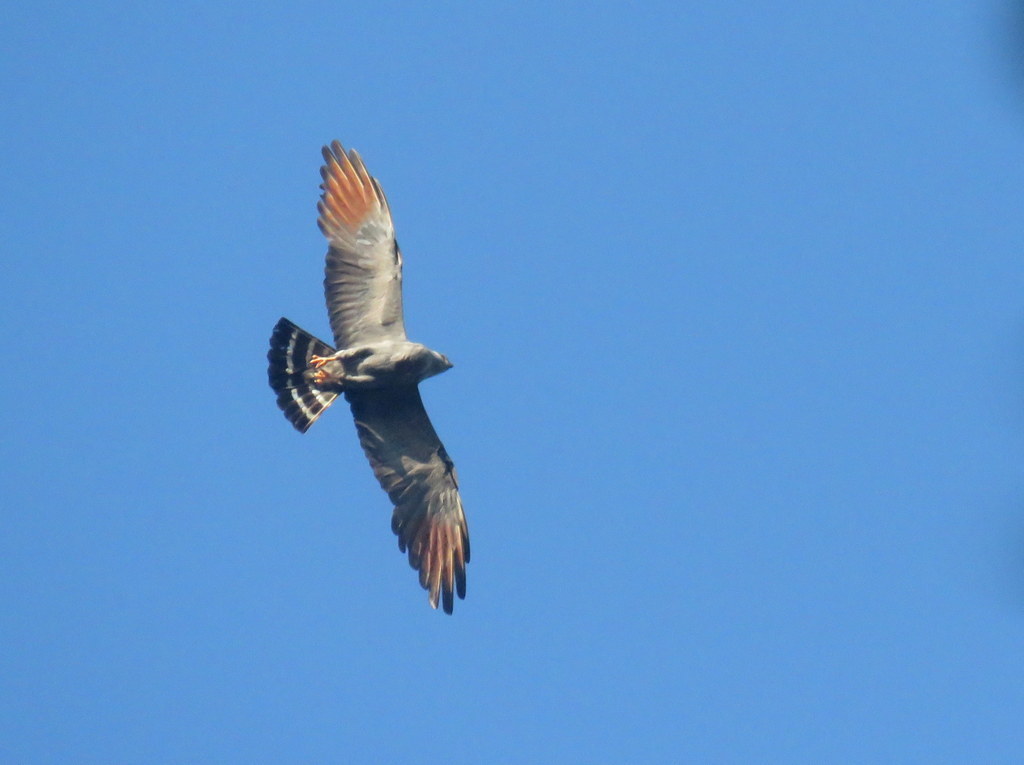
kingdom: Animalia
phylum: Chordata
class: Aves
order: Accipitriformes
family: Accipitridae
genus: Ictinia
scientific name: Ictinia plumbea
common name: Plumbeous kite
